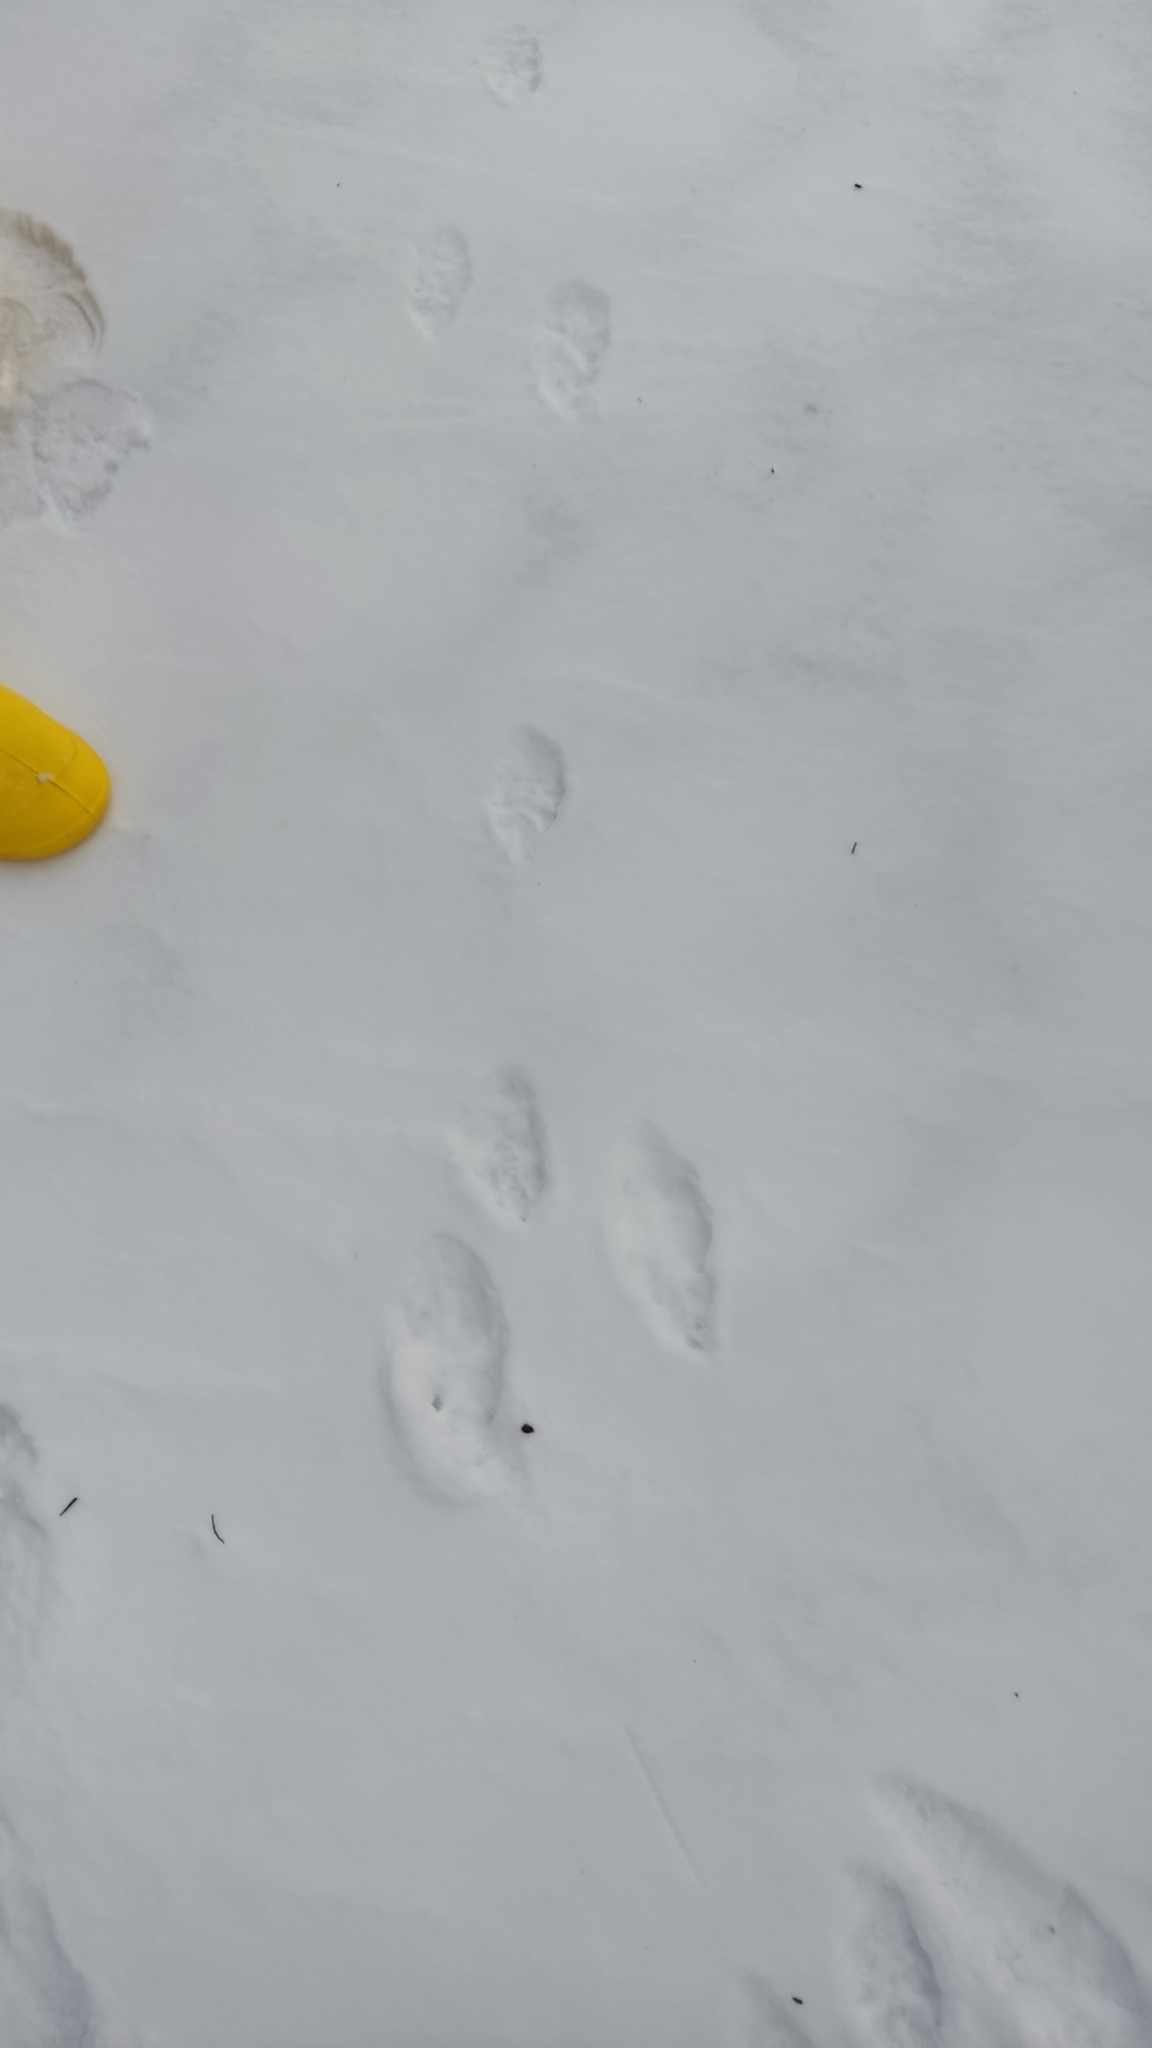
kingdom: Animalia
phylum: Chordata
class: Mammalia
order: Lagomorpha
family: Leporidae
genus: Lepus
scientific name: Lepus europaeus
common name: European hare
